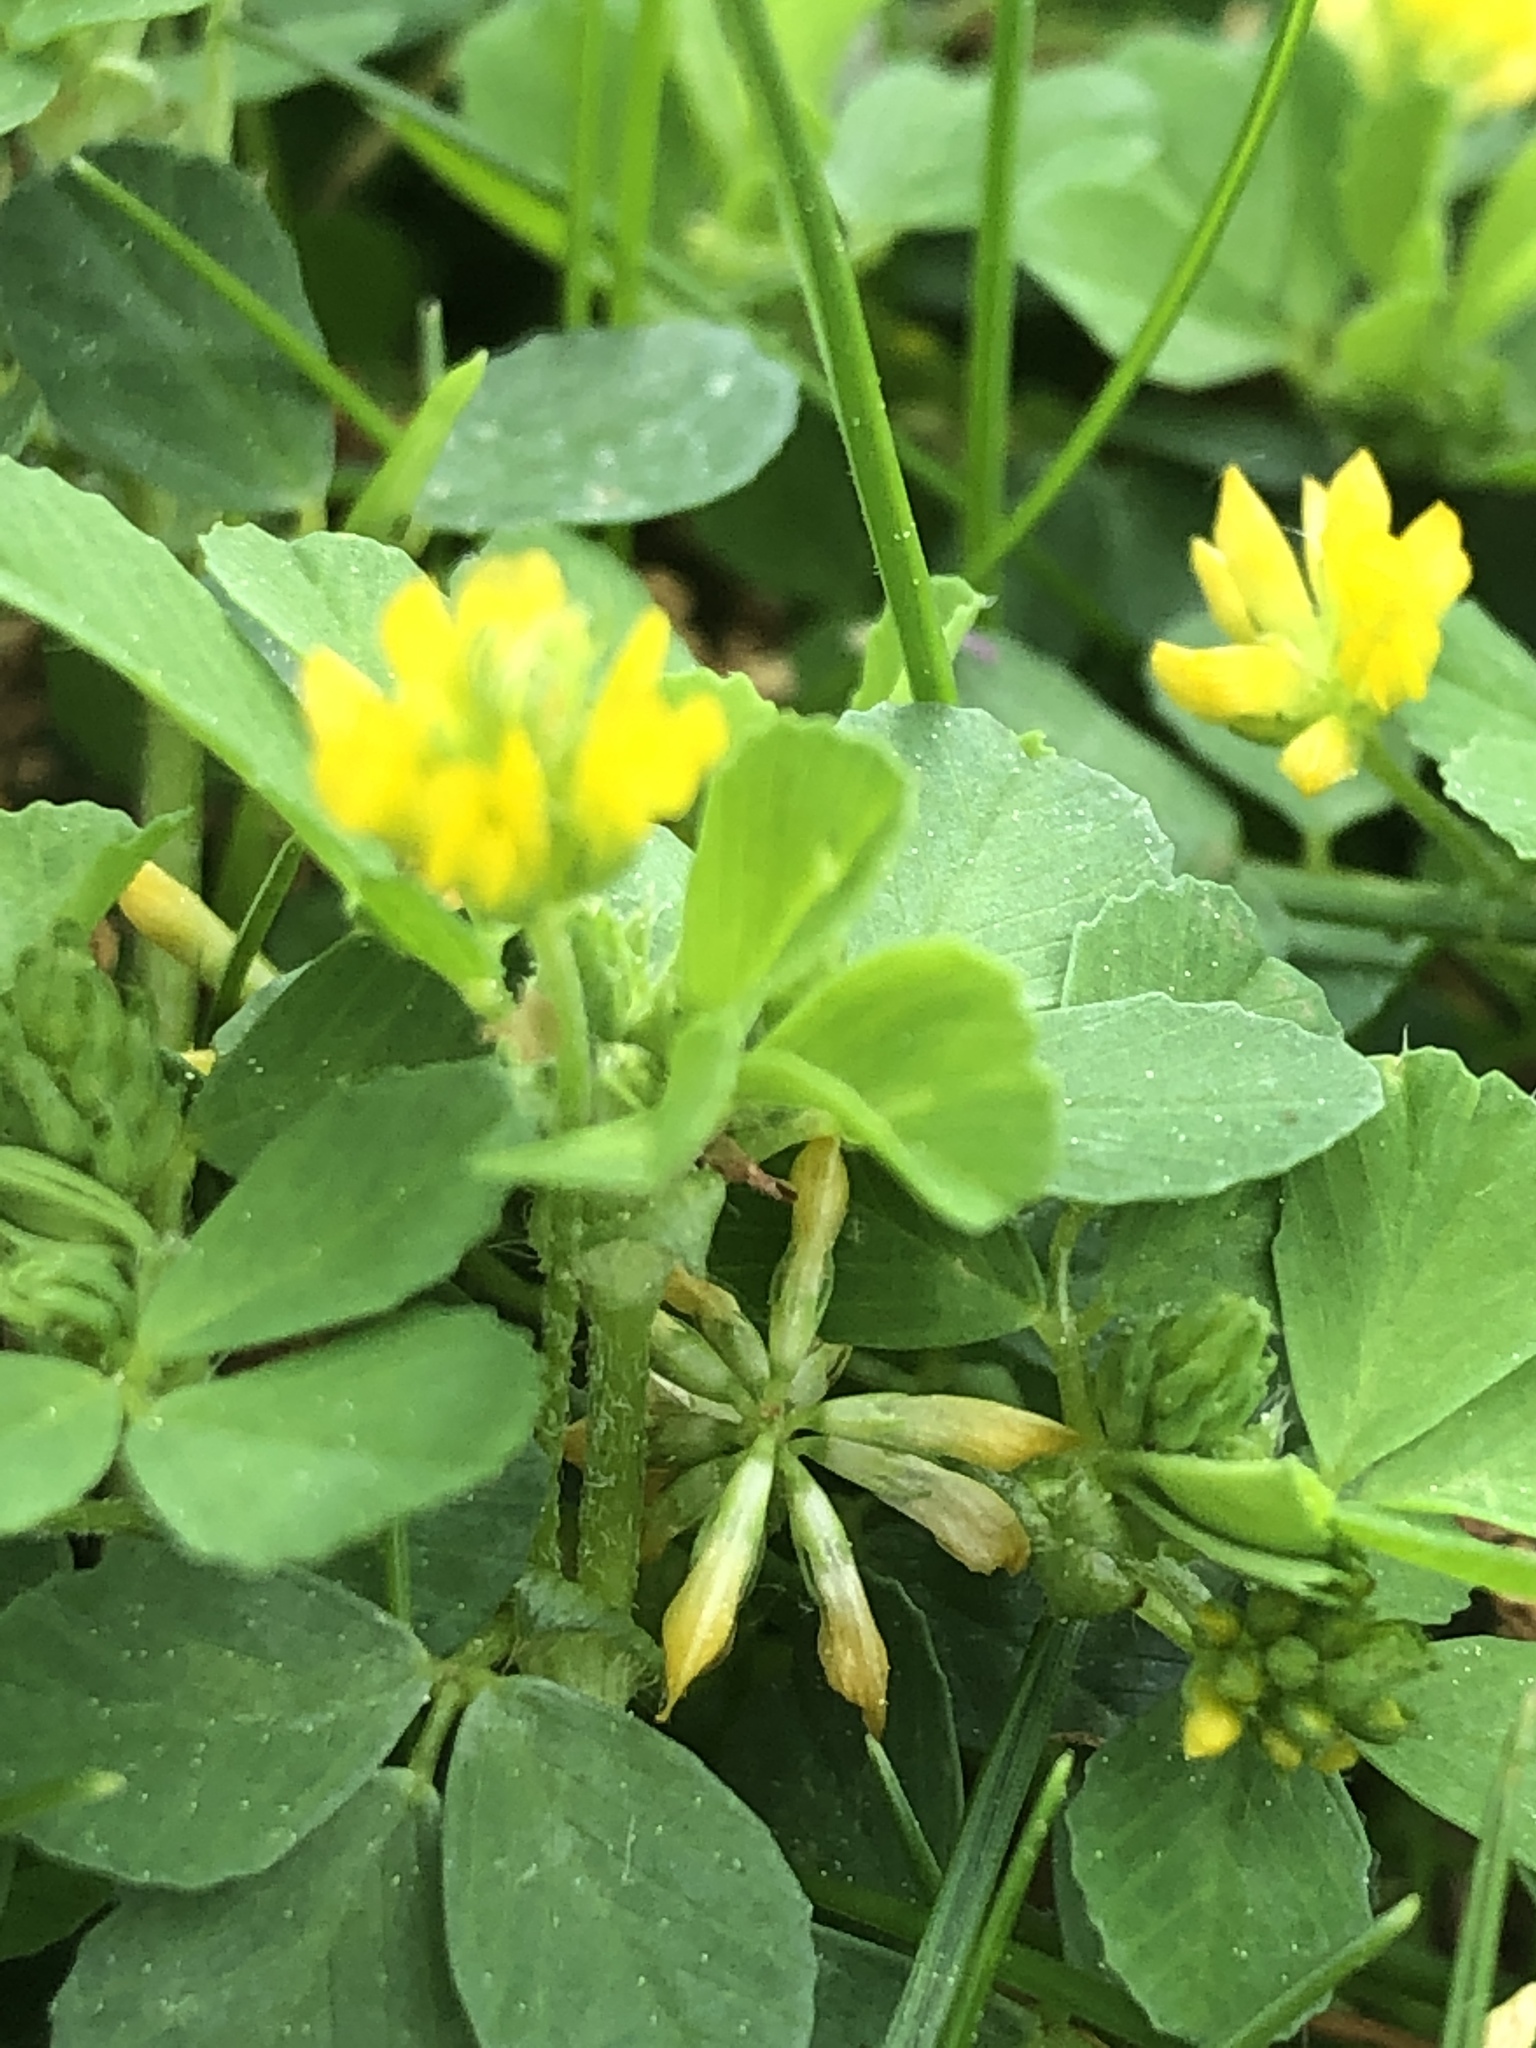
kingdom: Plantae
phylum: Tracheophyta
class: Magnoliopsida
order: Fabales
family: Fabaceae
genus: Trifolium
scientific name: Trifolium dubium
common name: Suckling clover
